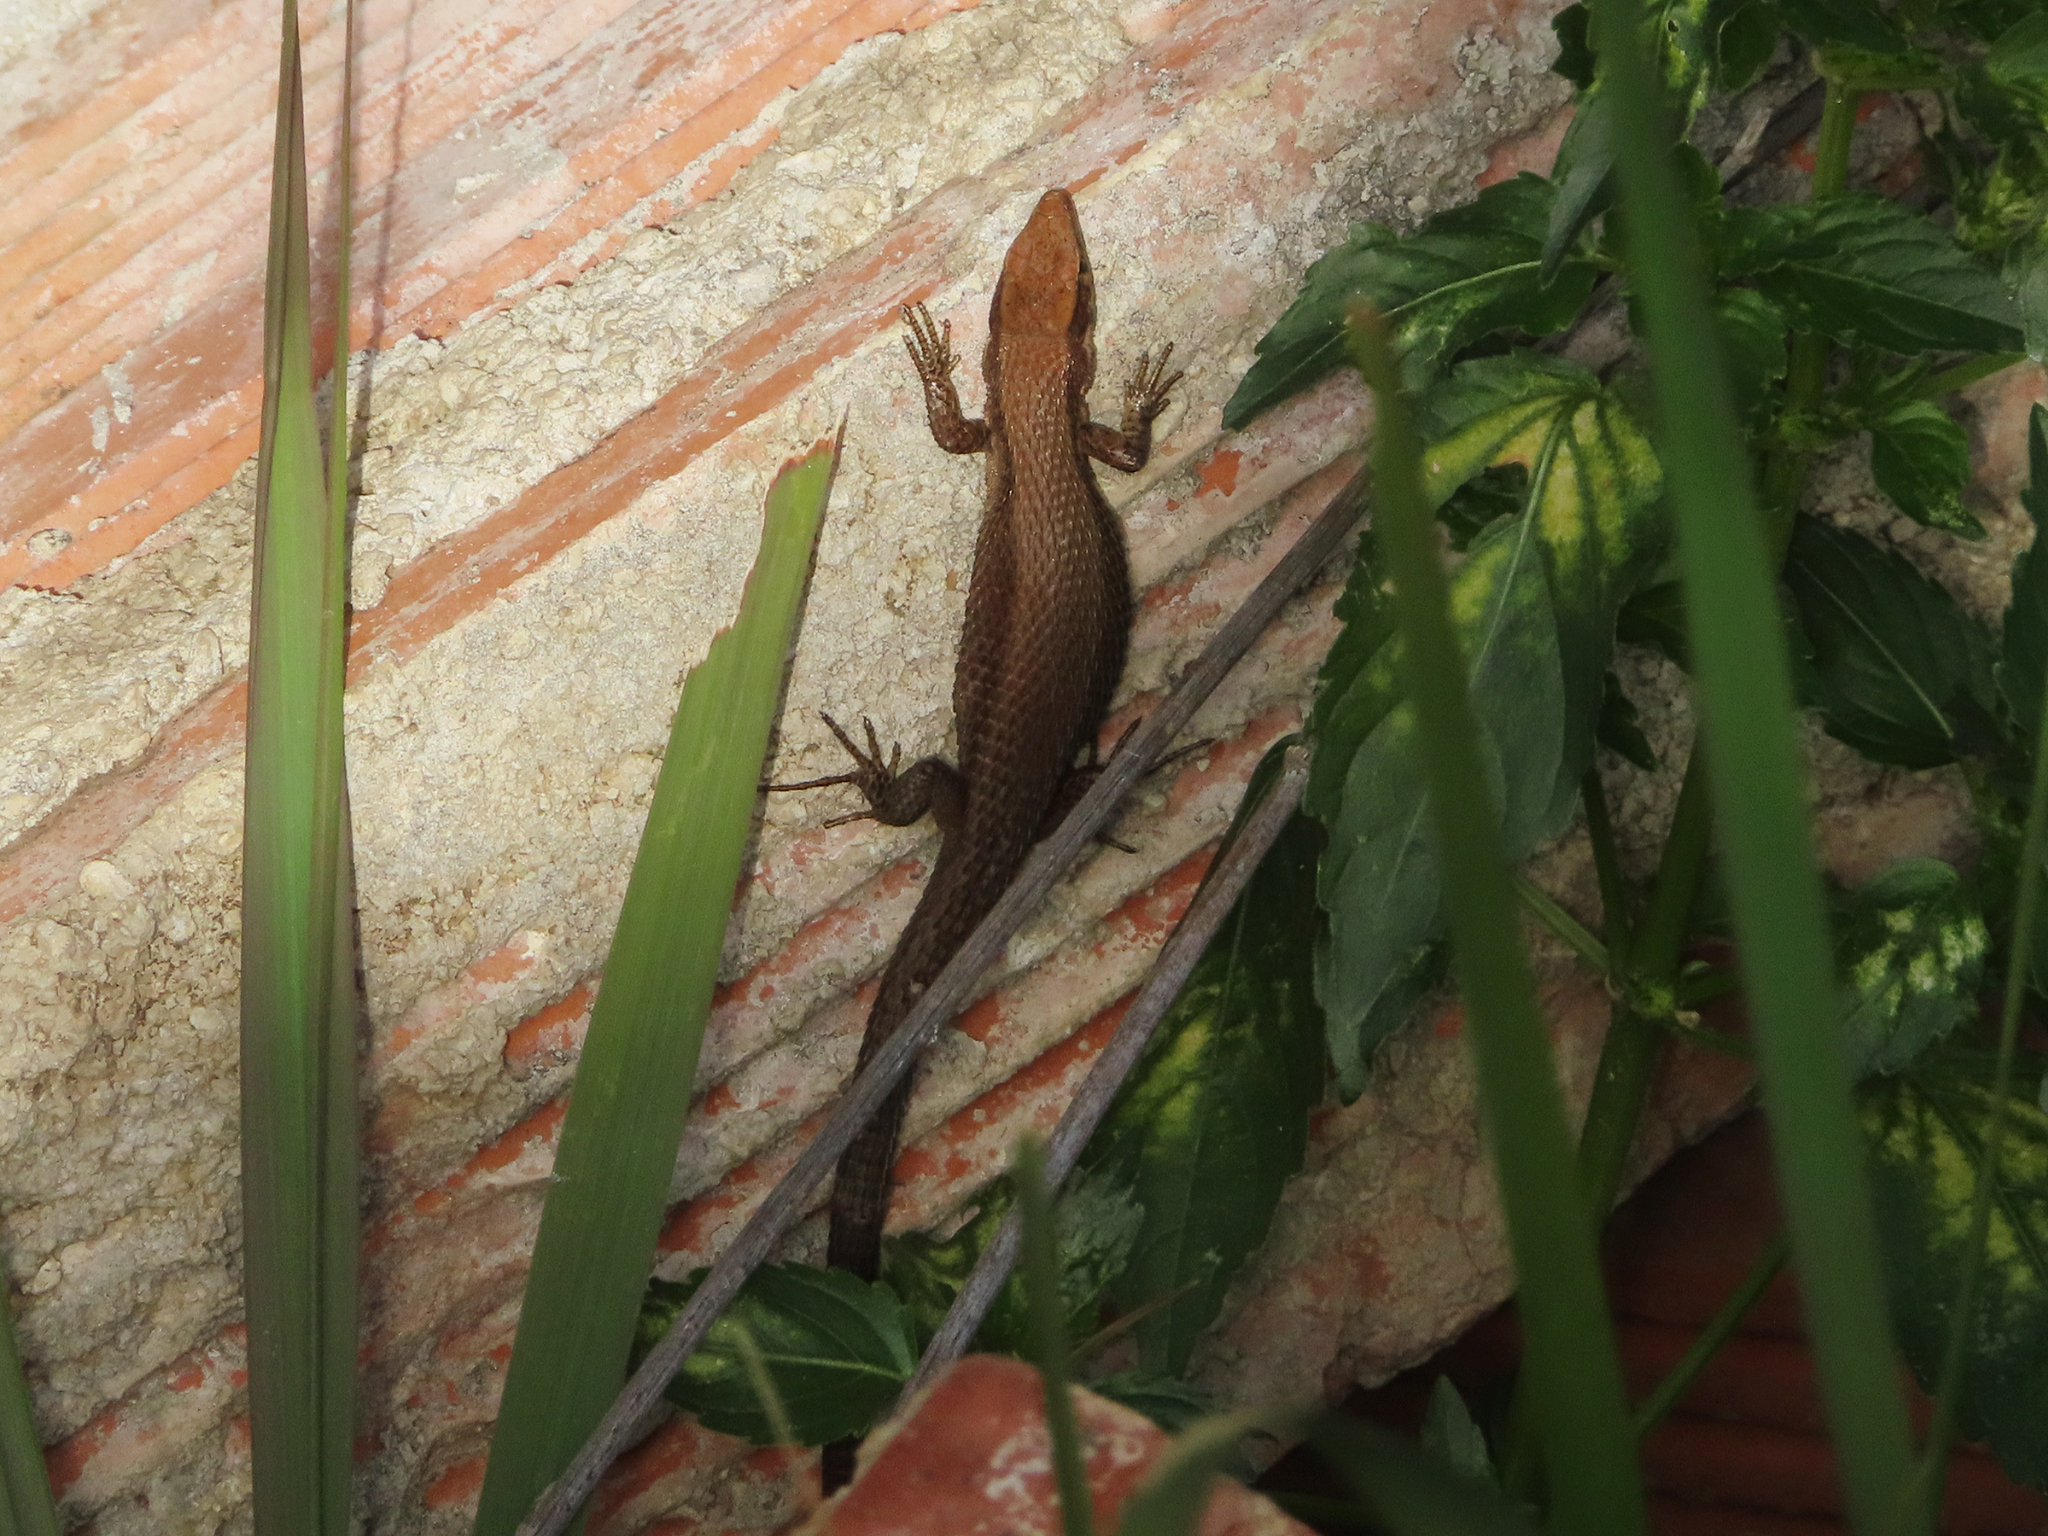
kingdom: Animalia
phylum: Chordata
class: Squamata
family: Lacertidae
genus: Algyroides
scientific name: Algyroides moreoticus
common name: Greek algyroides
